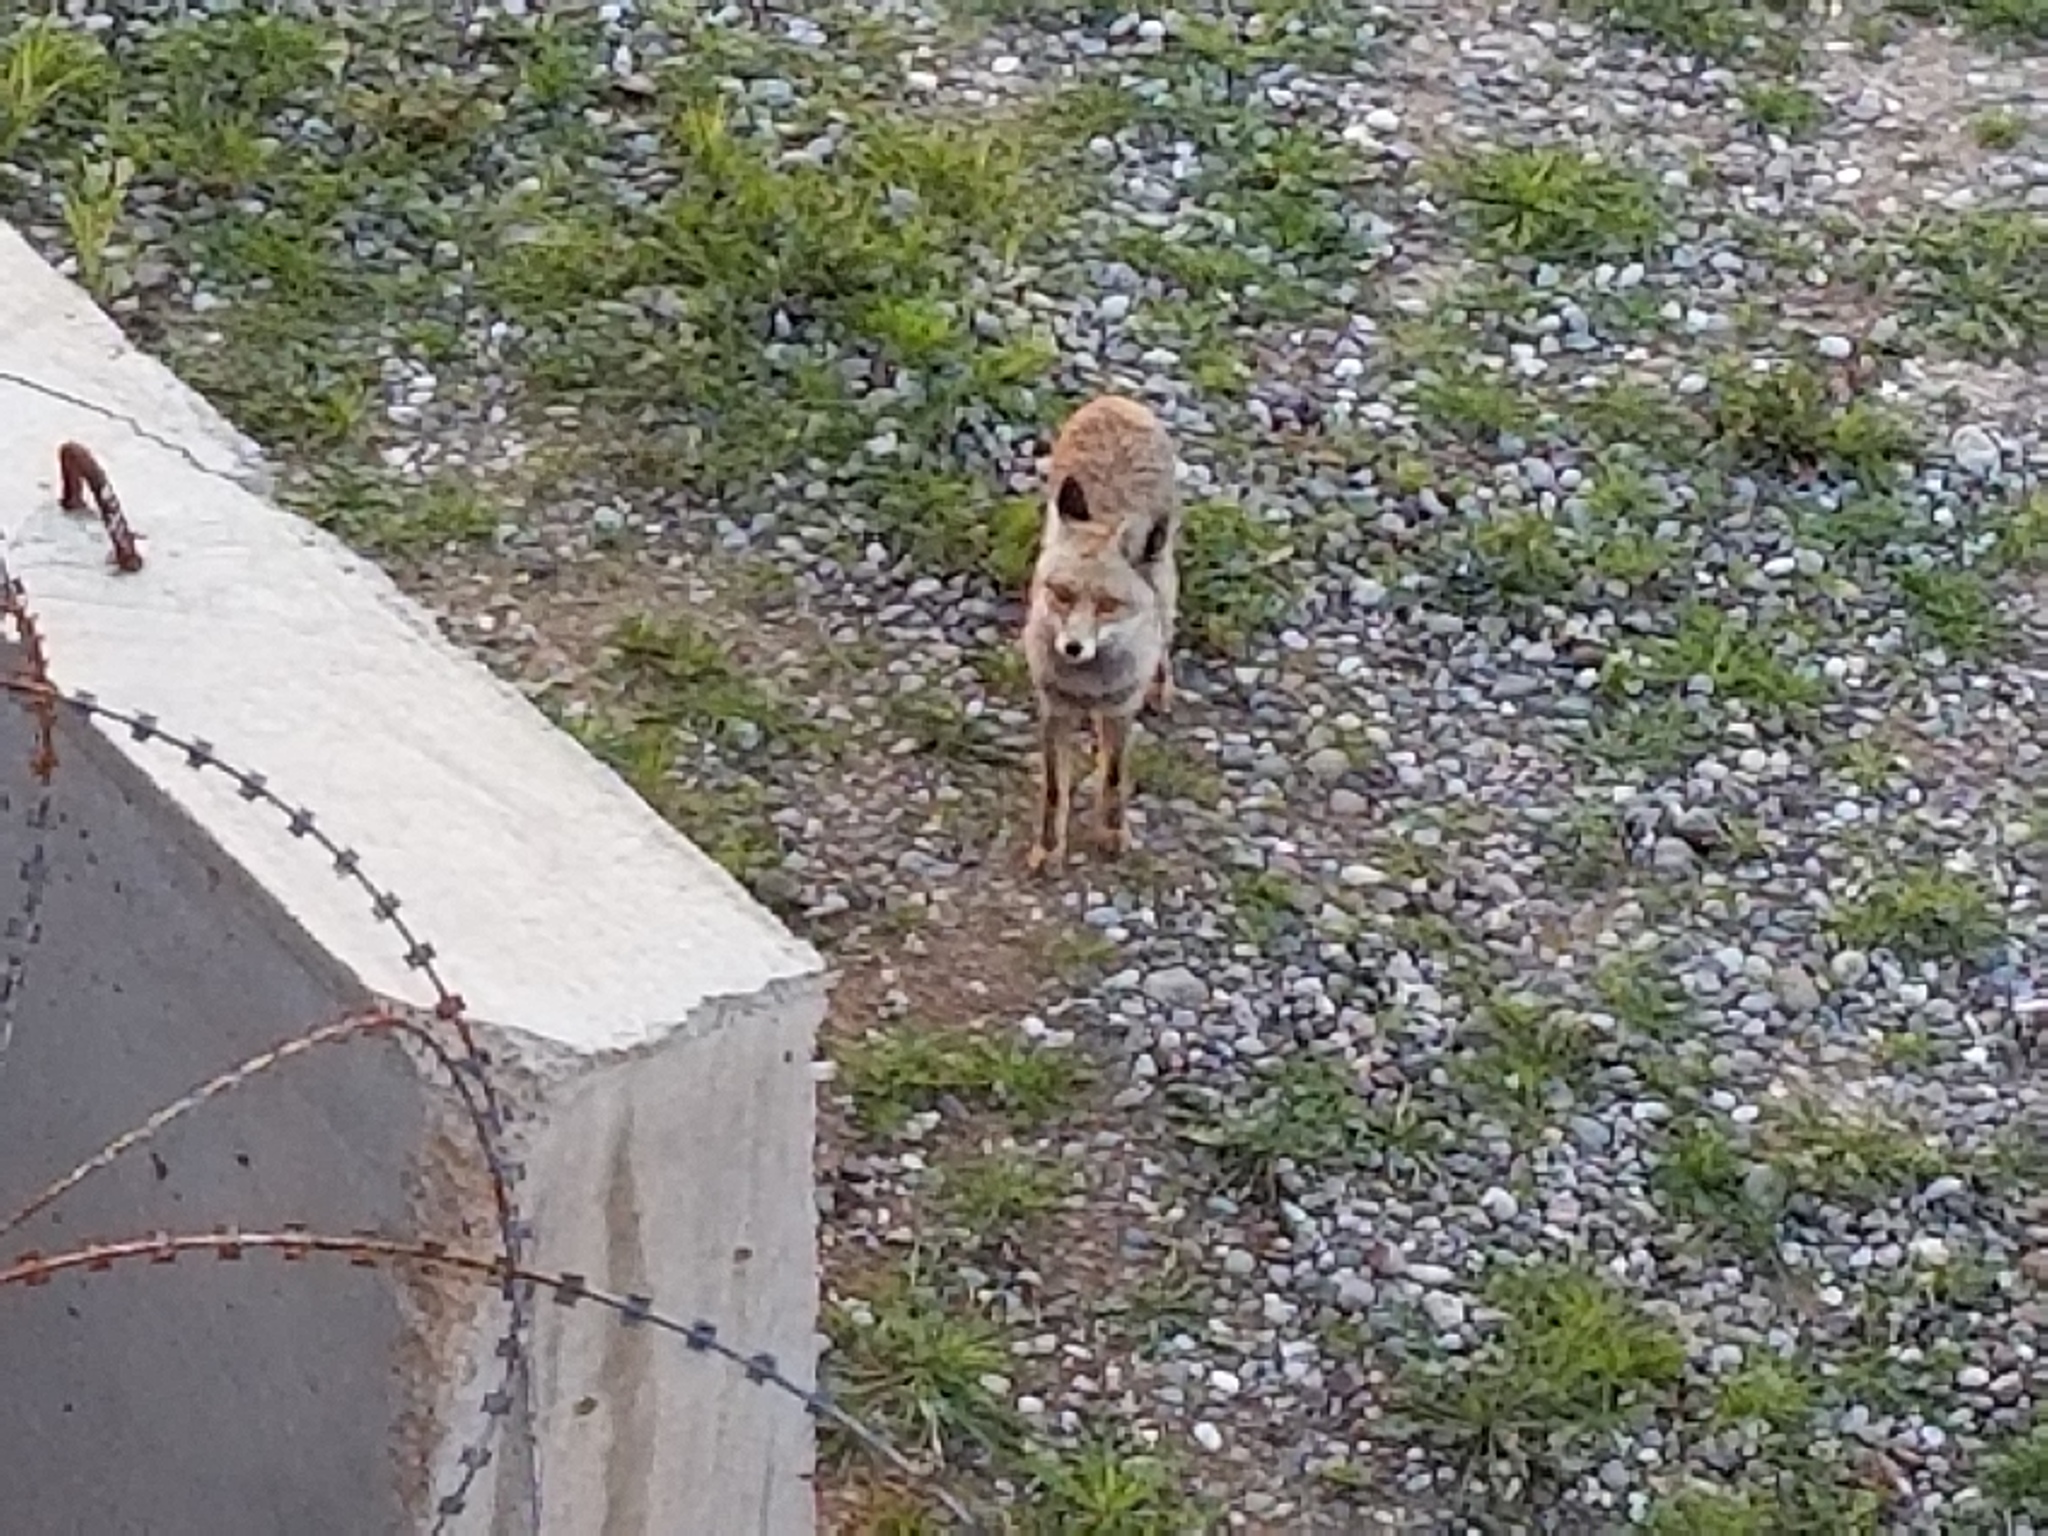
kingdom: Animalia
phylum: Chordata
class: Mammalia
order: Carnivora
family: Canidae
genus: Vulpes
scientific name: Vulpes vulpes
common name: Red fox
